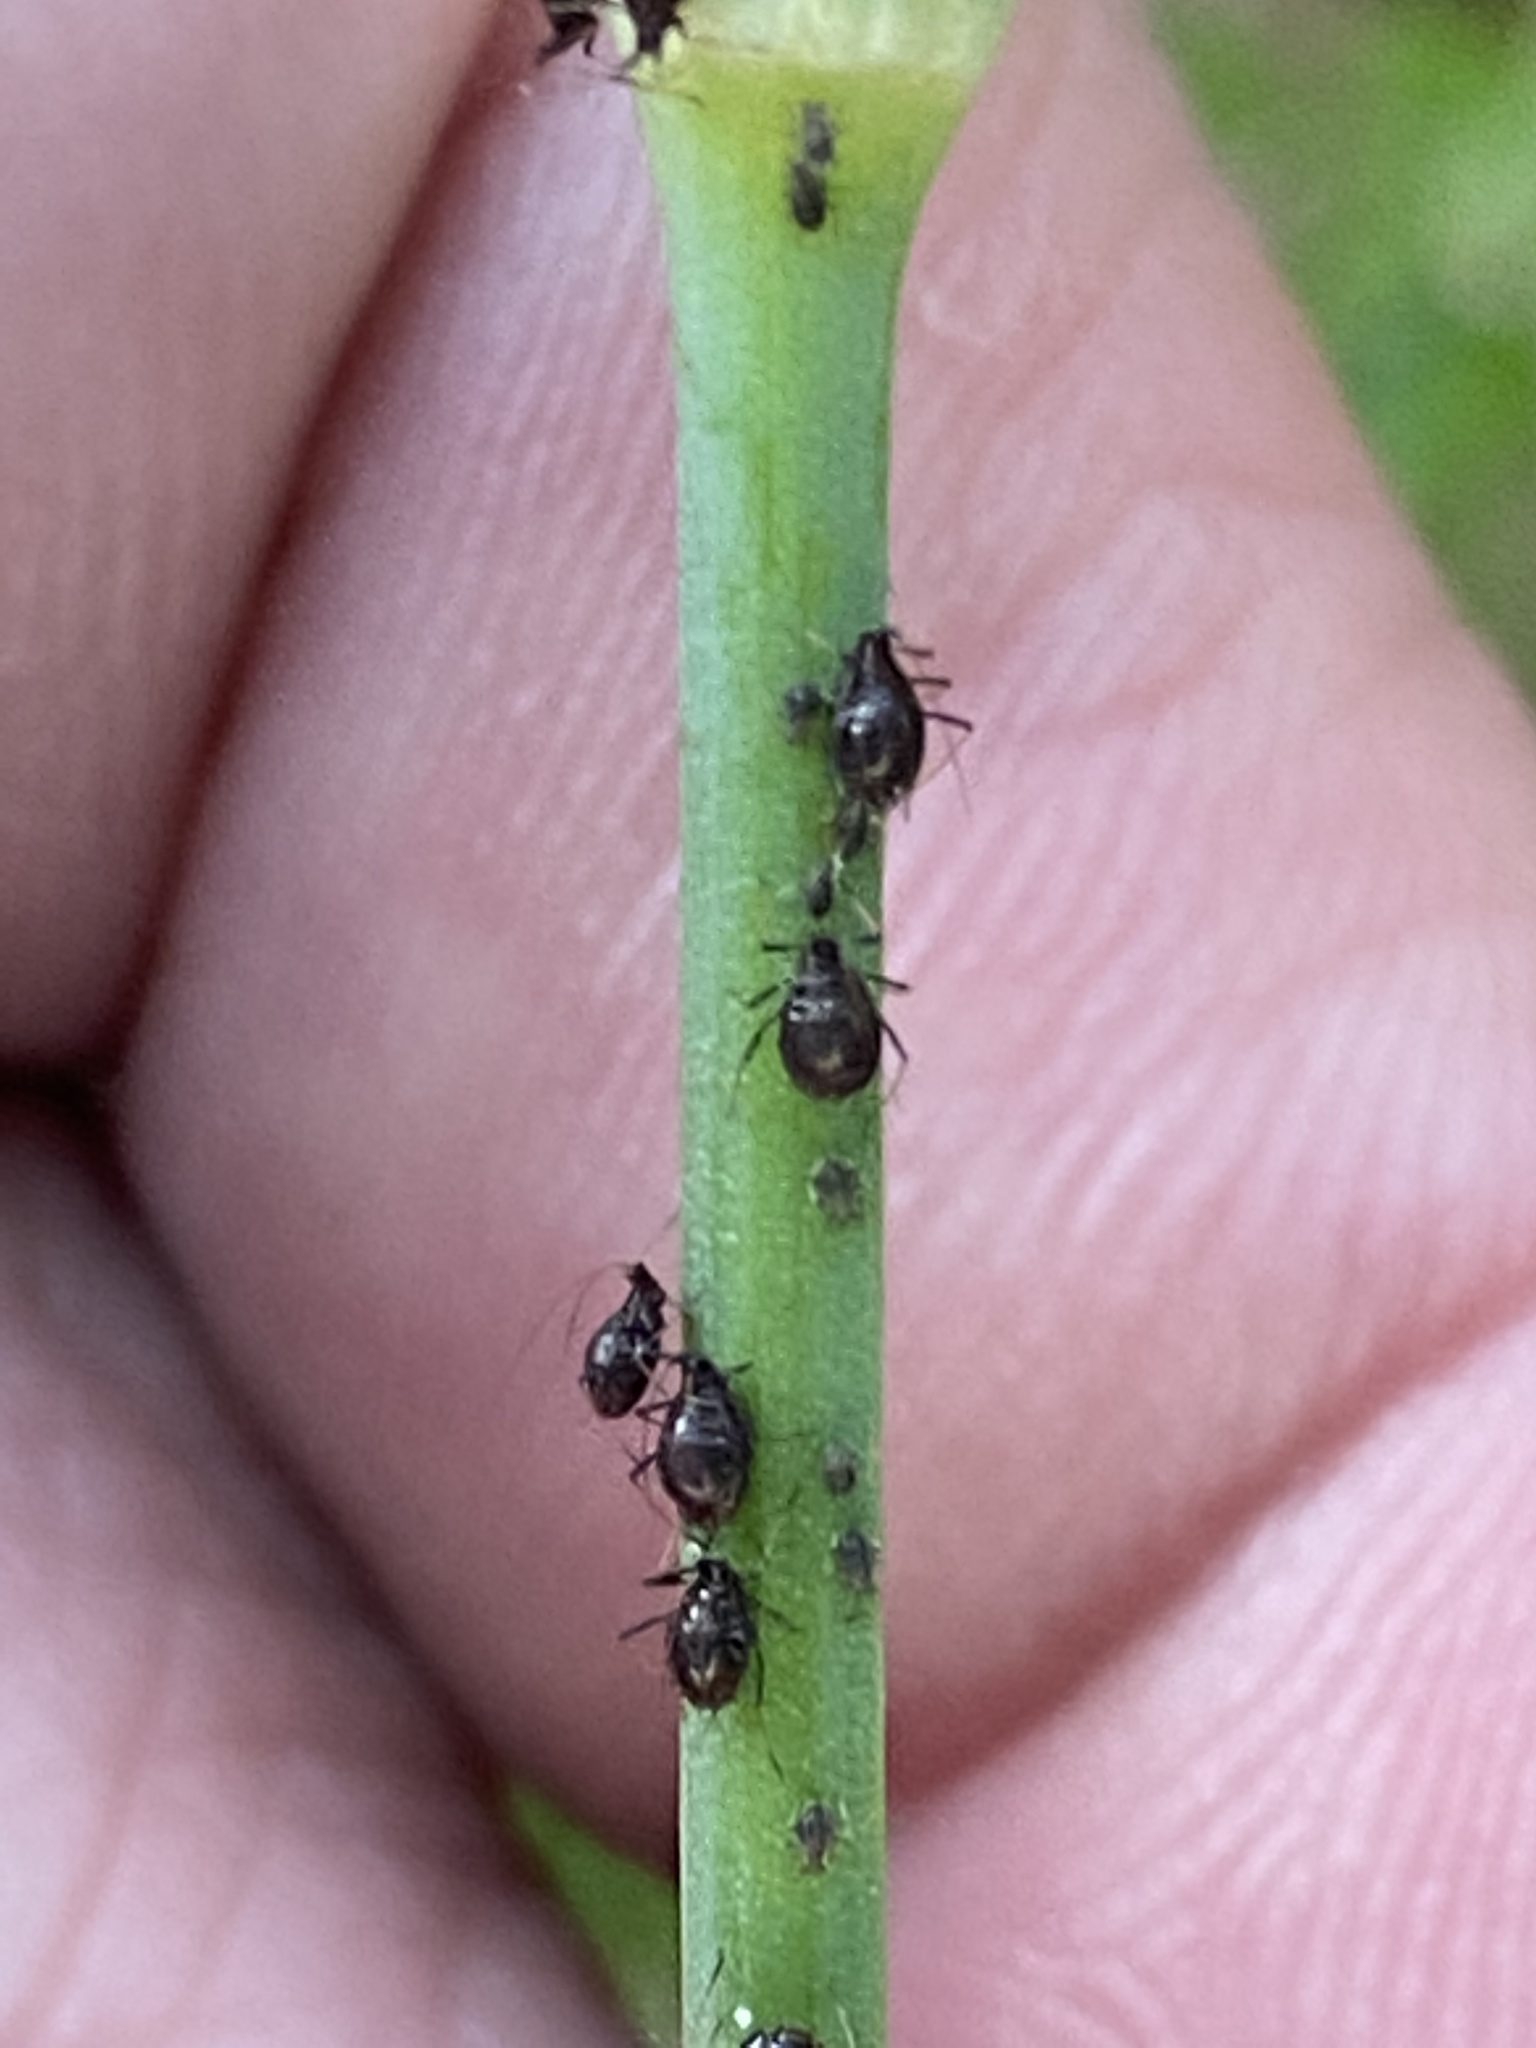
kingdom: Animalia
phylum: Arthropoda
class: Insecta
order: Hemiptera
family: Aphididae
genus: Neotoxoptera
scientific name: Neotoxoptera formosana
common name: Onion aphid
